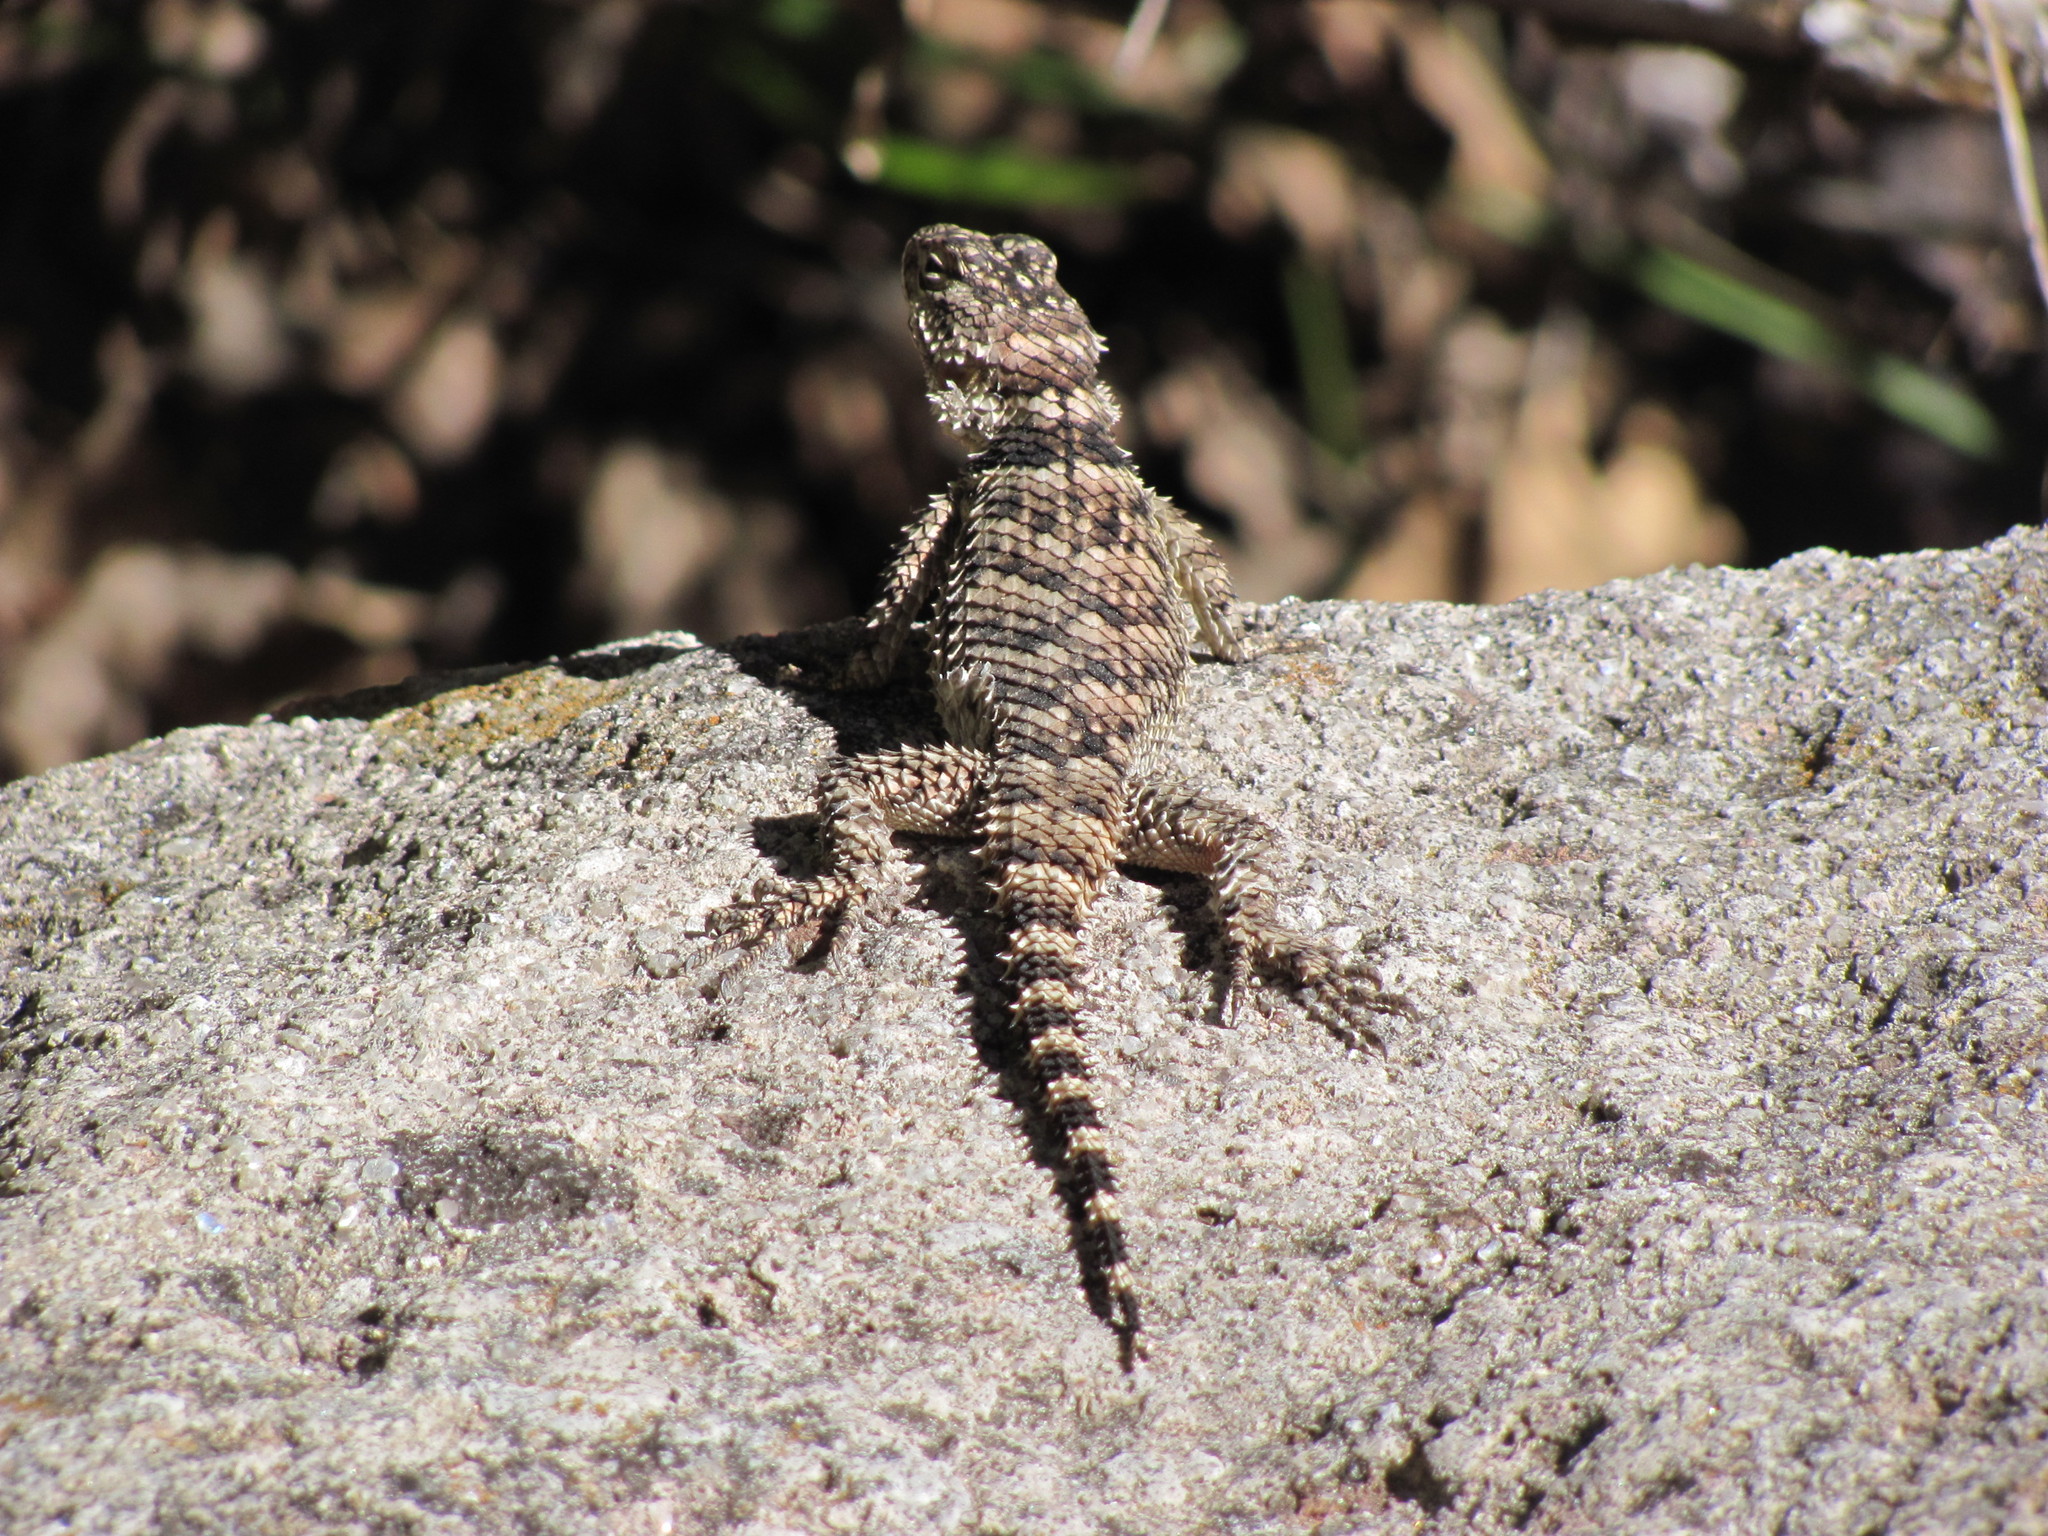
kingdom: Animalia
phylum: Chordata
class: Squamata
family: Phrynosomatidae
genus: Sceloporus
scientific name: Sceloporus poinsettii
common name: Crevice spiny lizard
